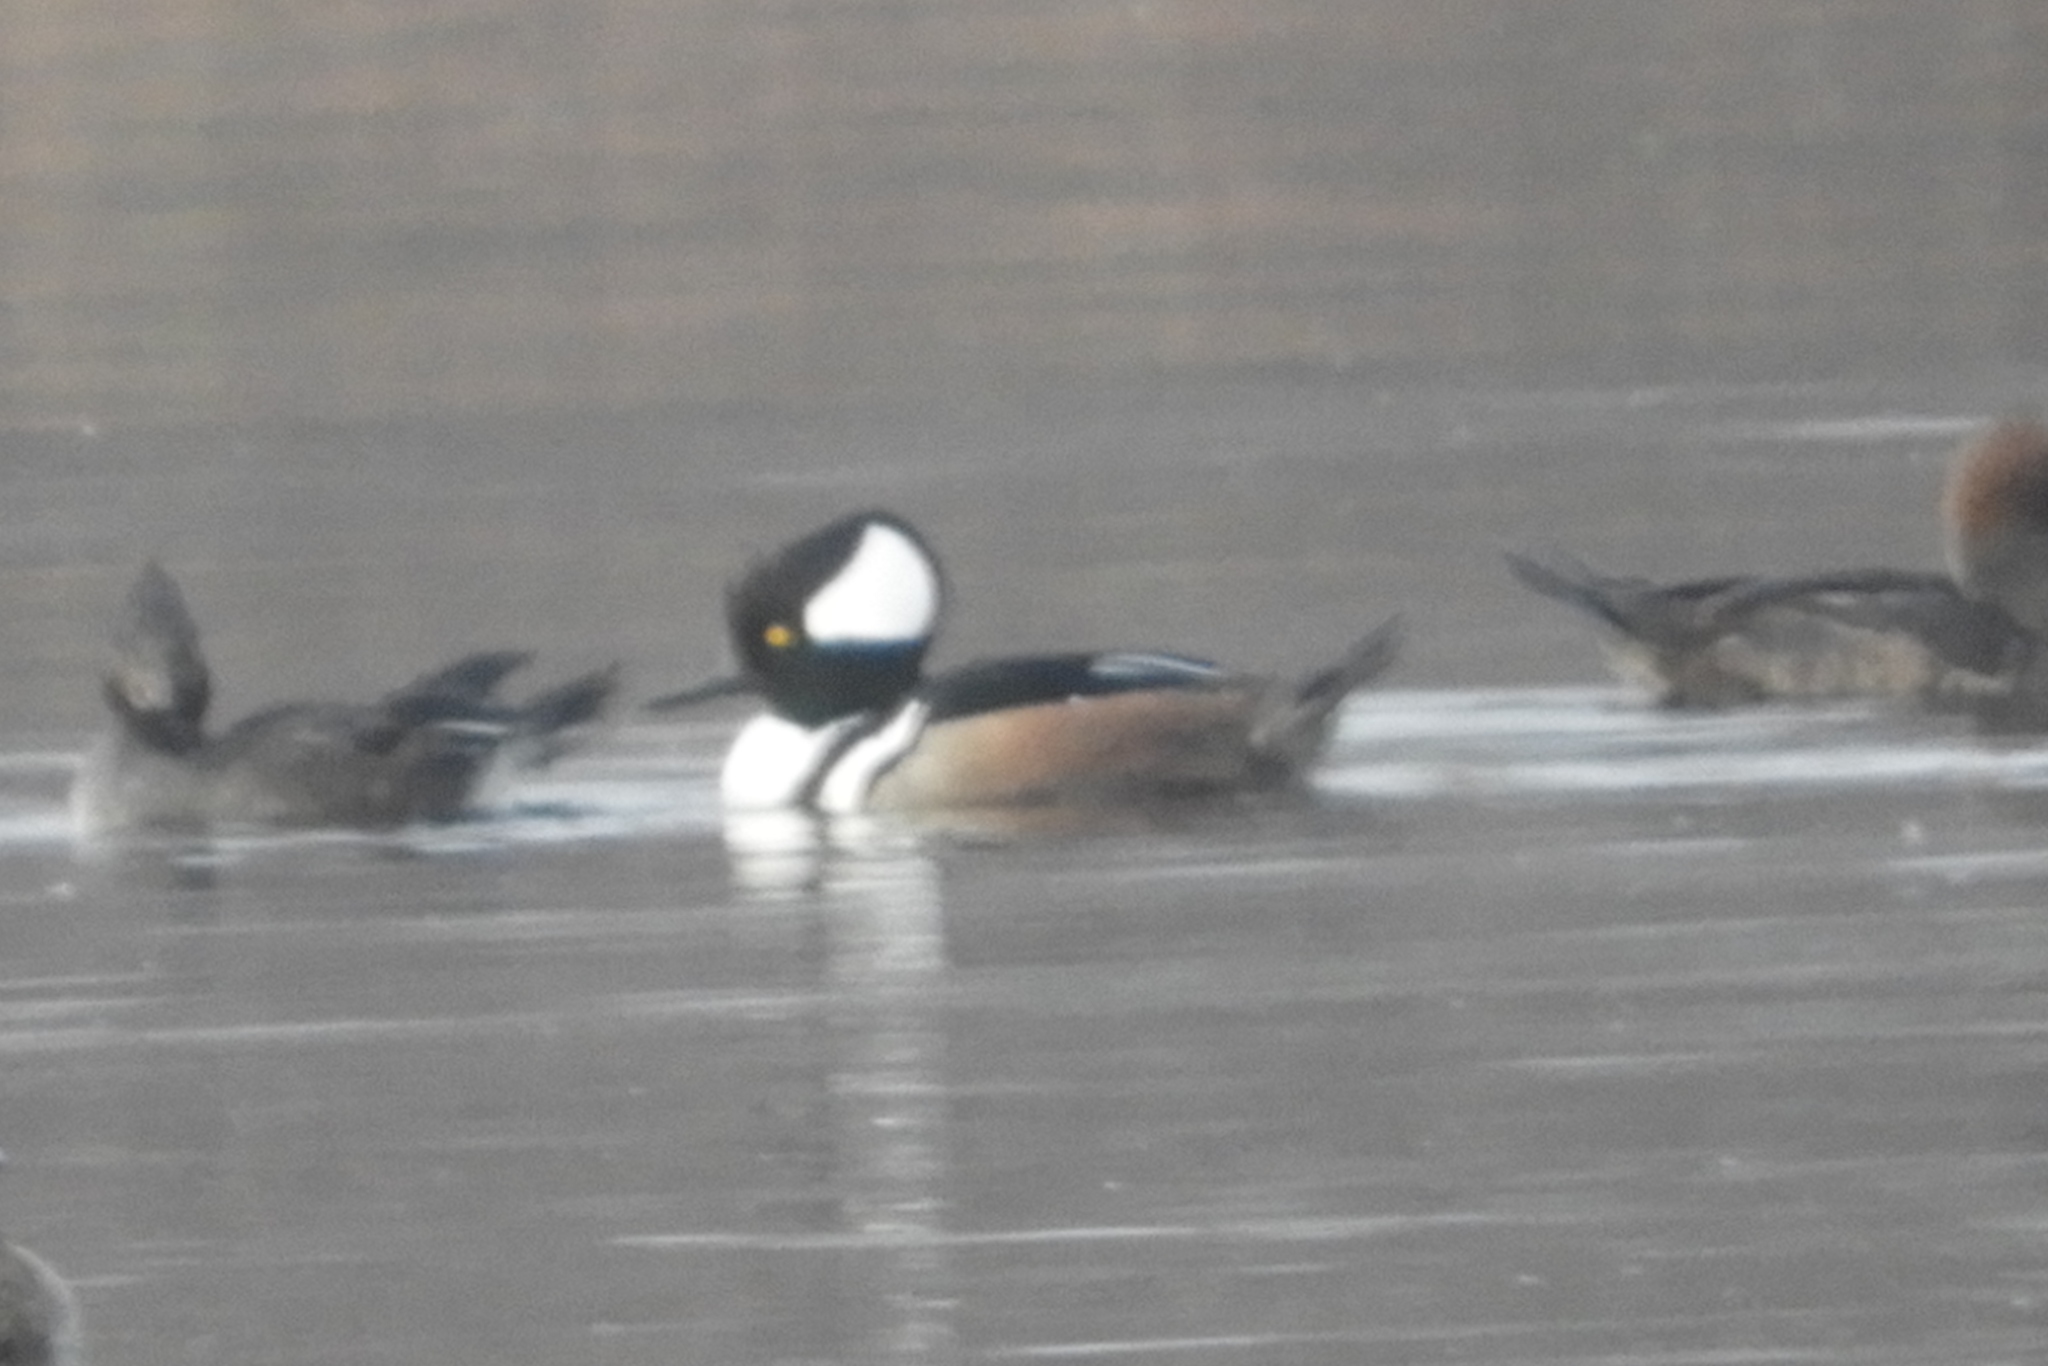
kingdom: Animalia
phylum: Chordata
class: Aves
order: Anseriformes
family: Anatidae
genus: Lophodytes
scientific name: Lophodytes cucullatus
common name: Hooded merganser
